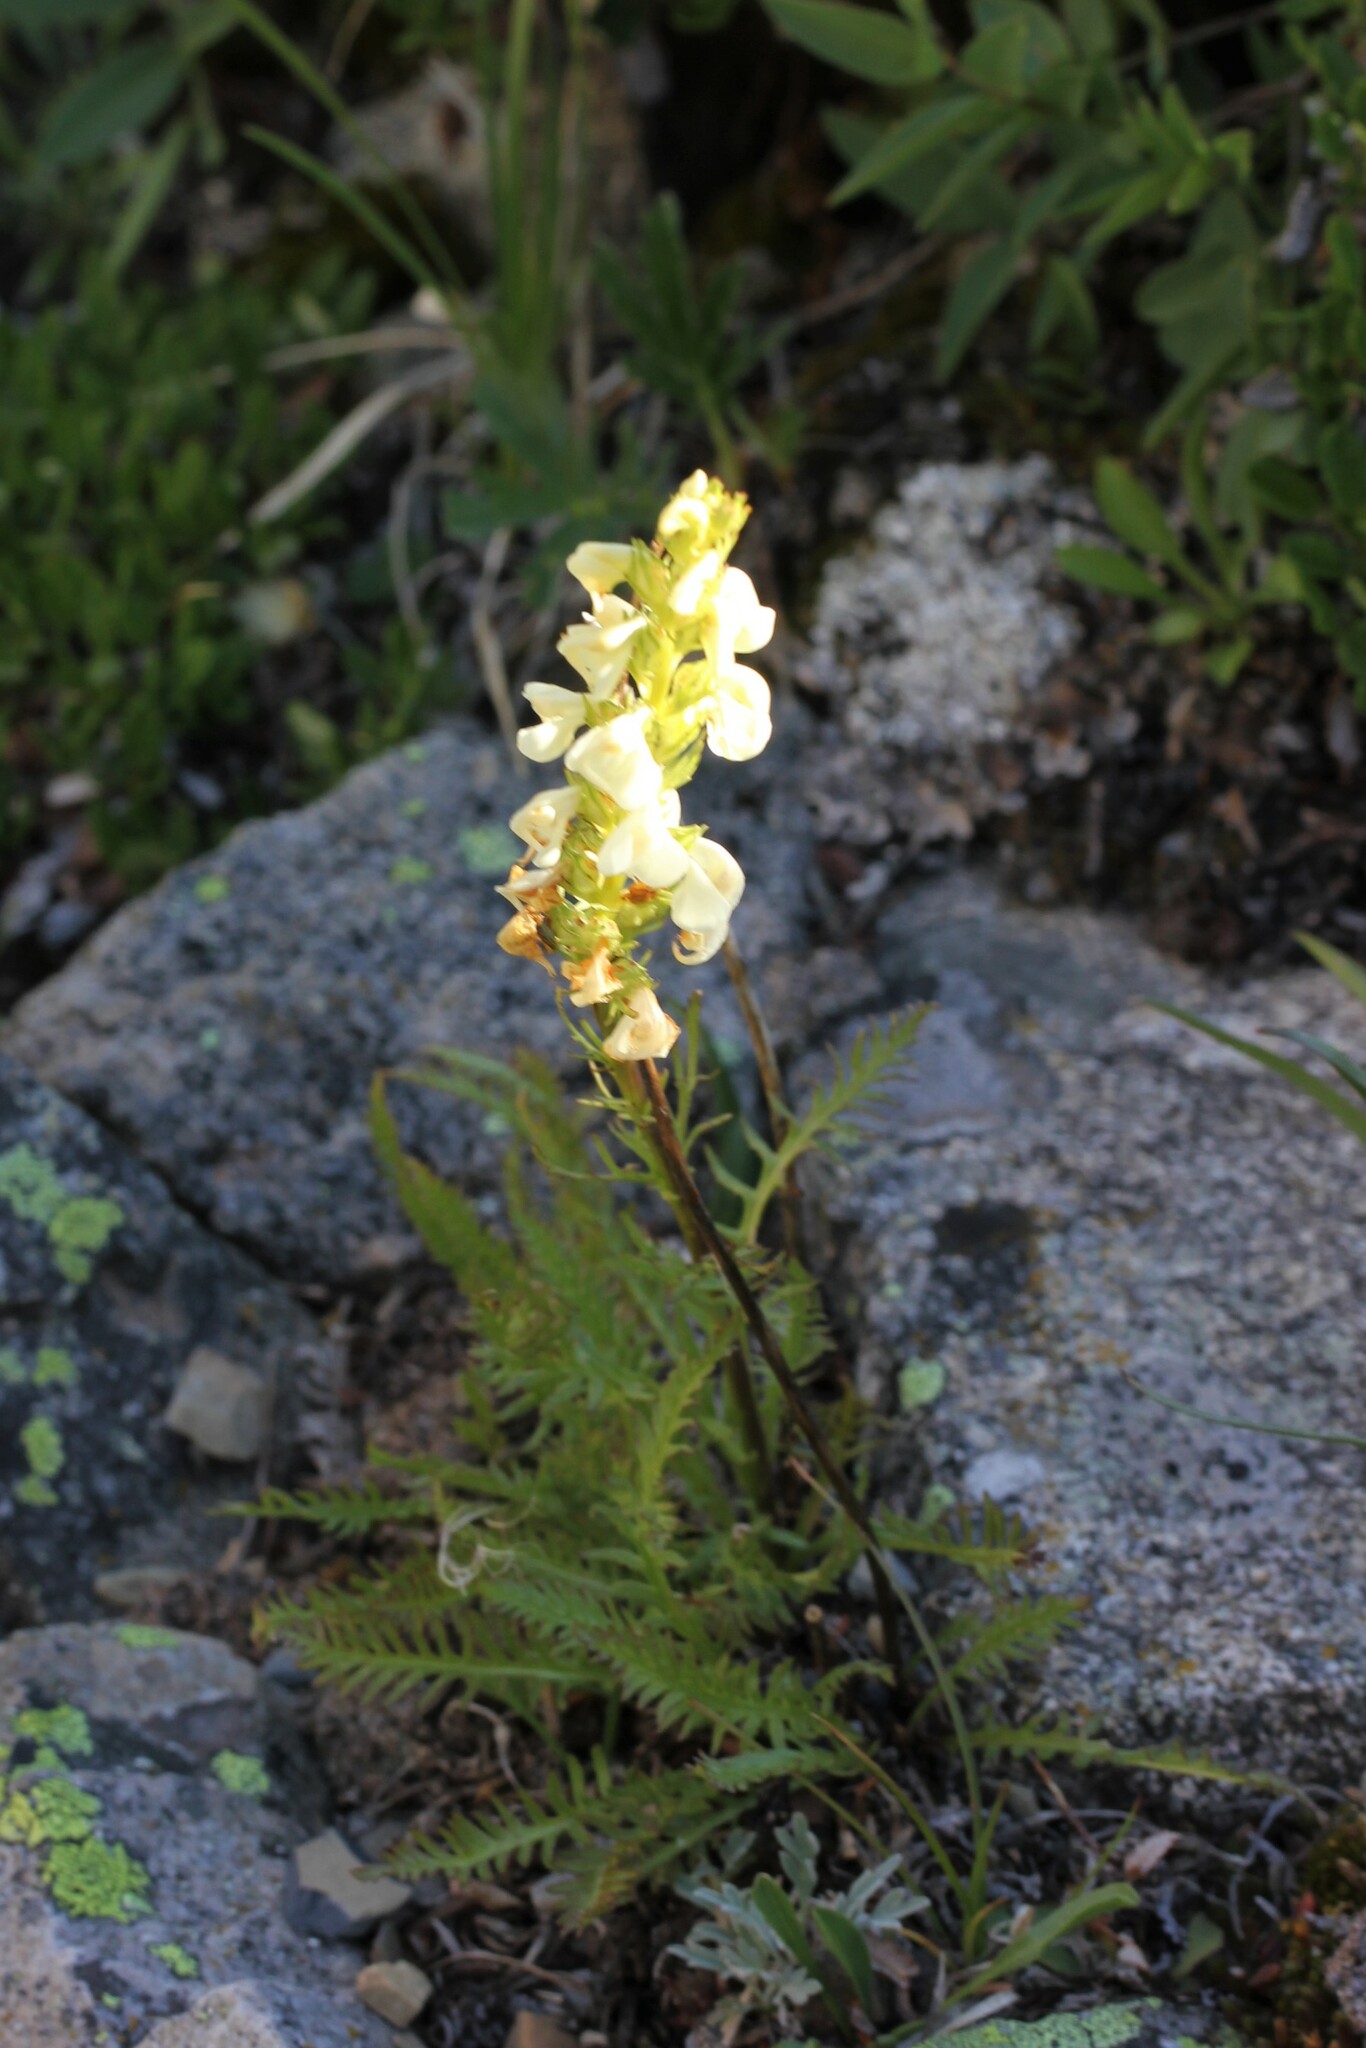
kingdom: Plantae
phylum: Tracheophyta
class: Magnoliopsida
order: Lamiales
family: Orobanchaceae
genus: Pedicularis
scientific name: Pedicularis contorta
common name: Coiled lousewort
